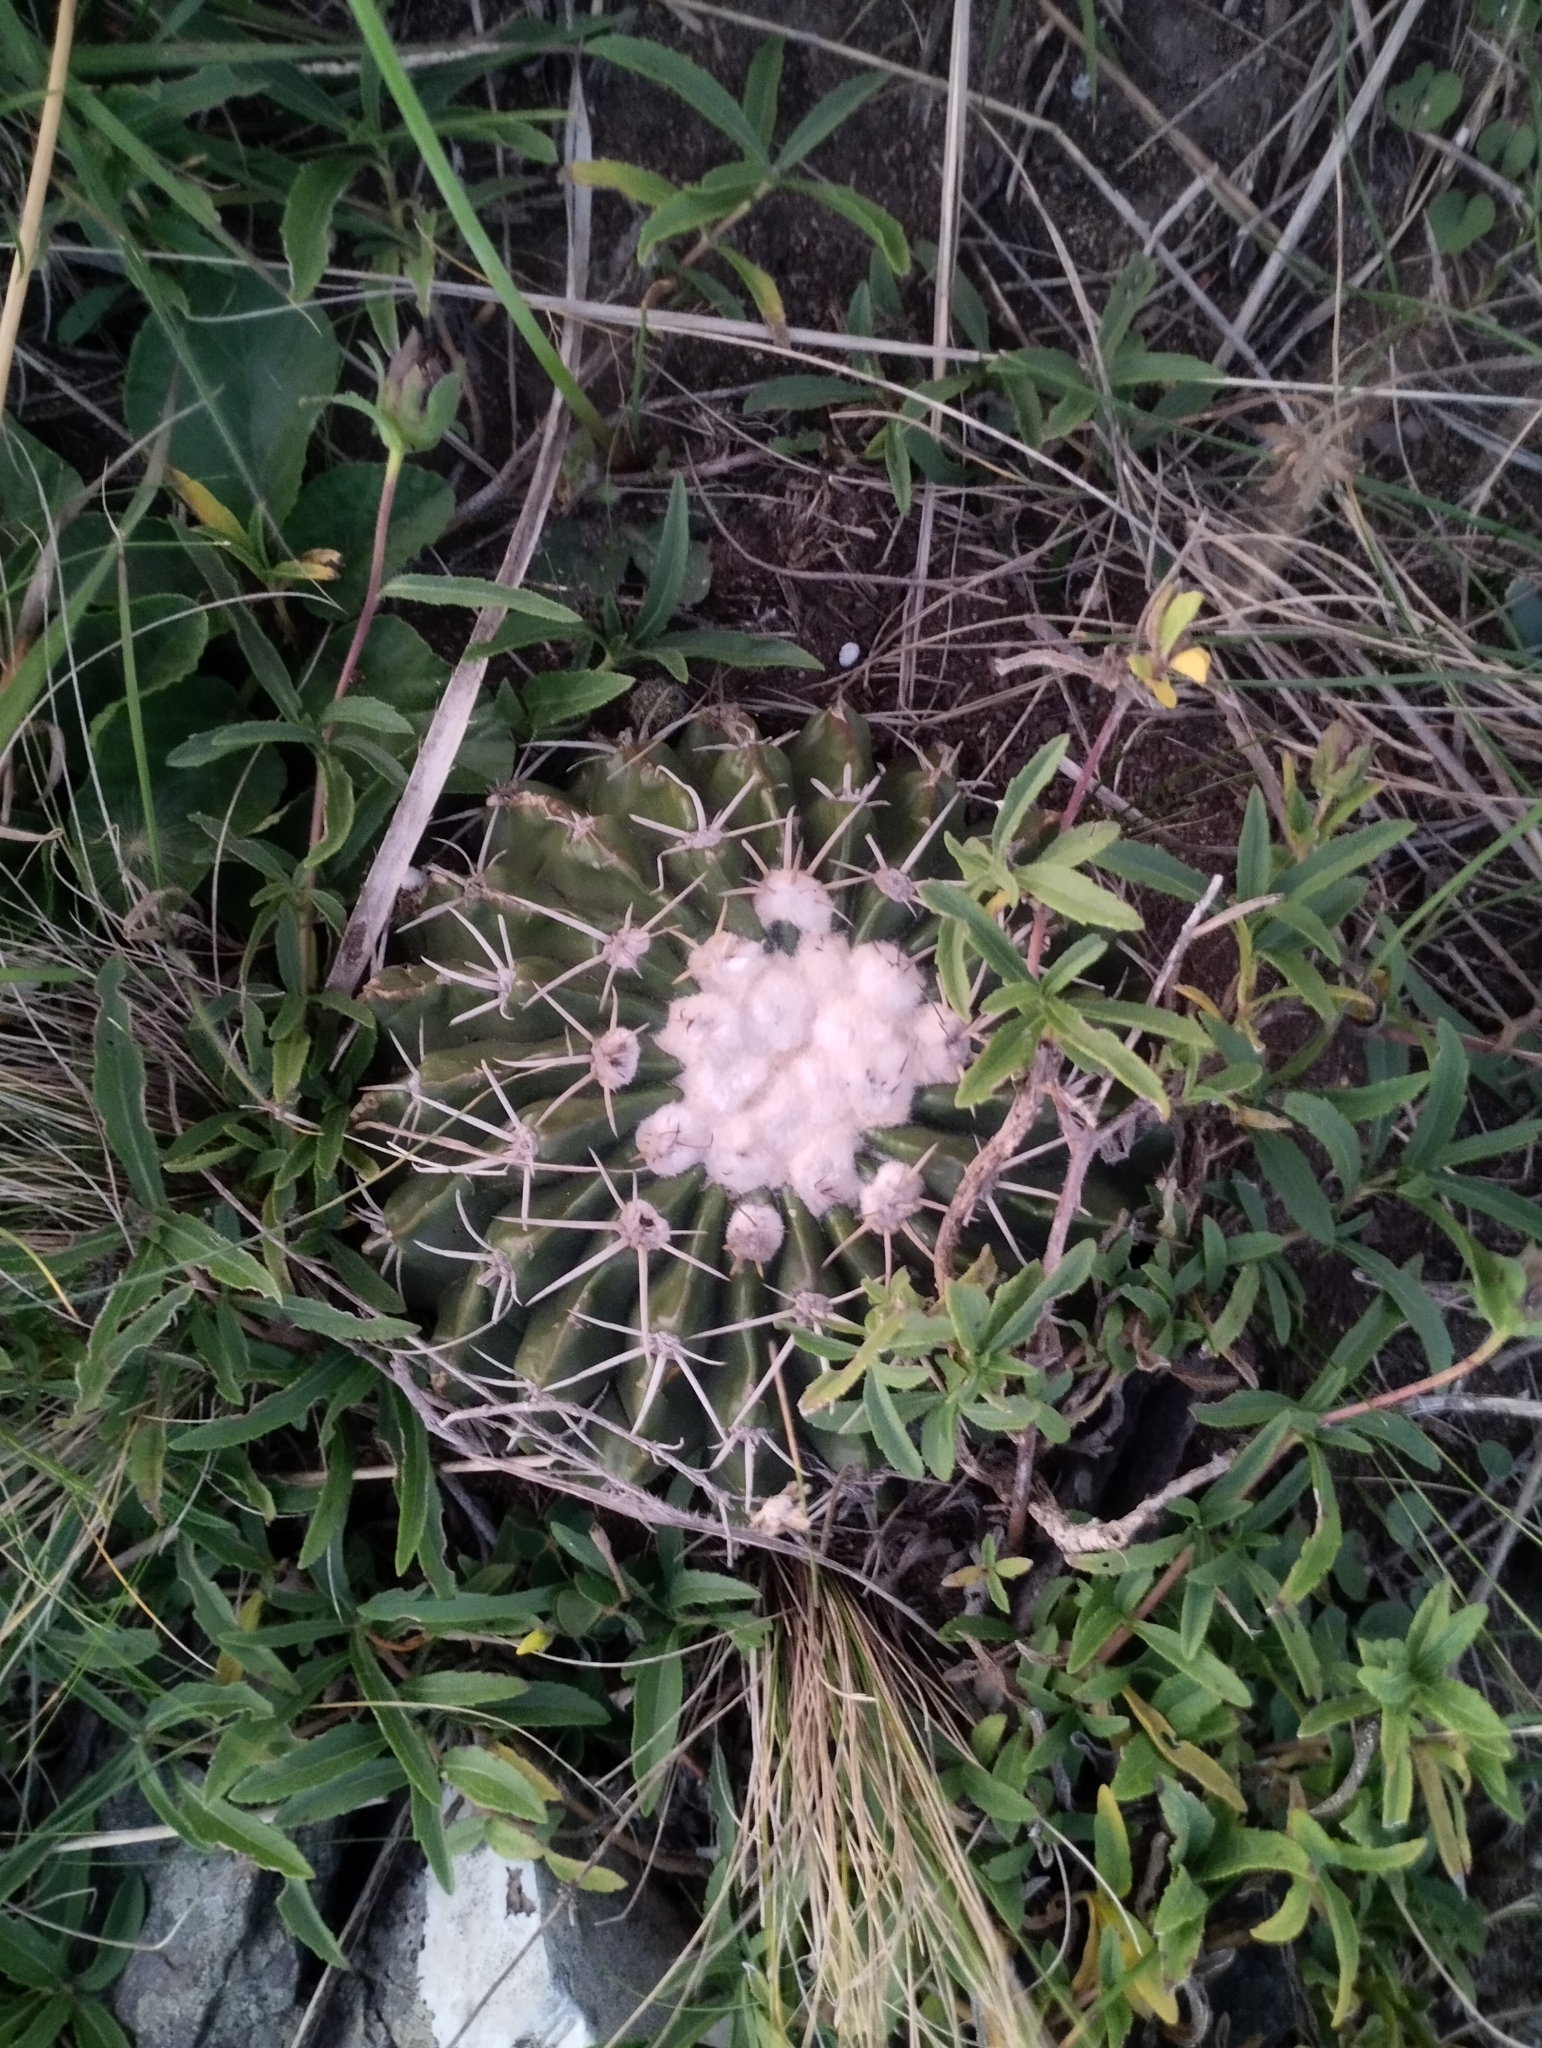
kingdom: Plantae
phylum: Tracheophyta
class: Magnoliopsida
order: Caryophyllales
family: Cactaceae
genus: Parodia
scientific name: Parodia erinacea
